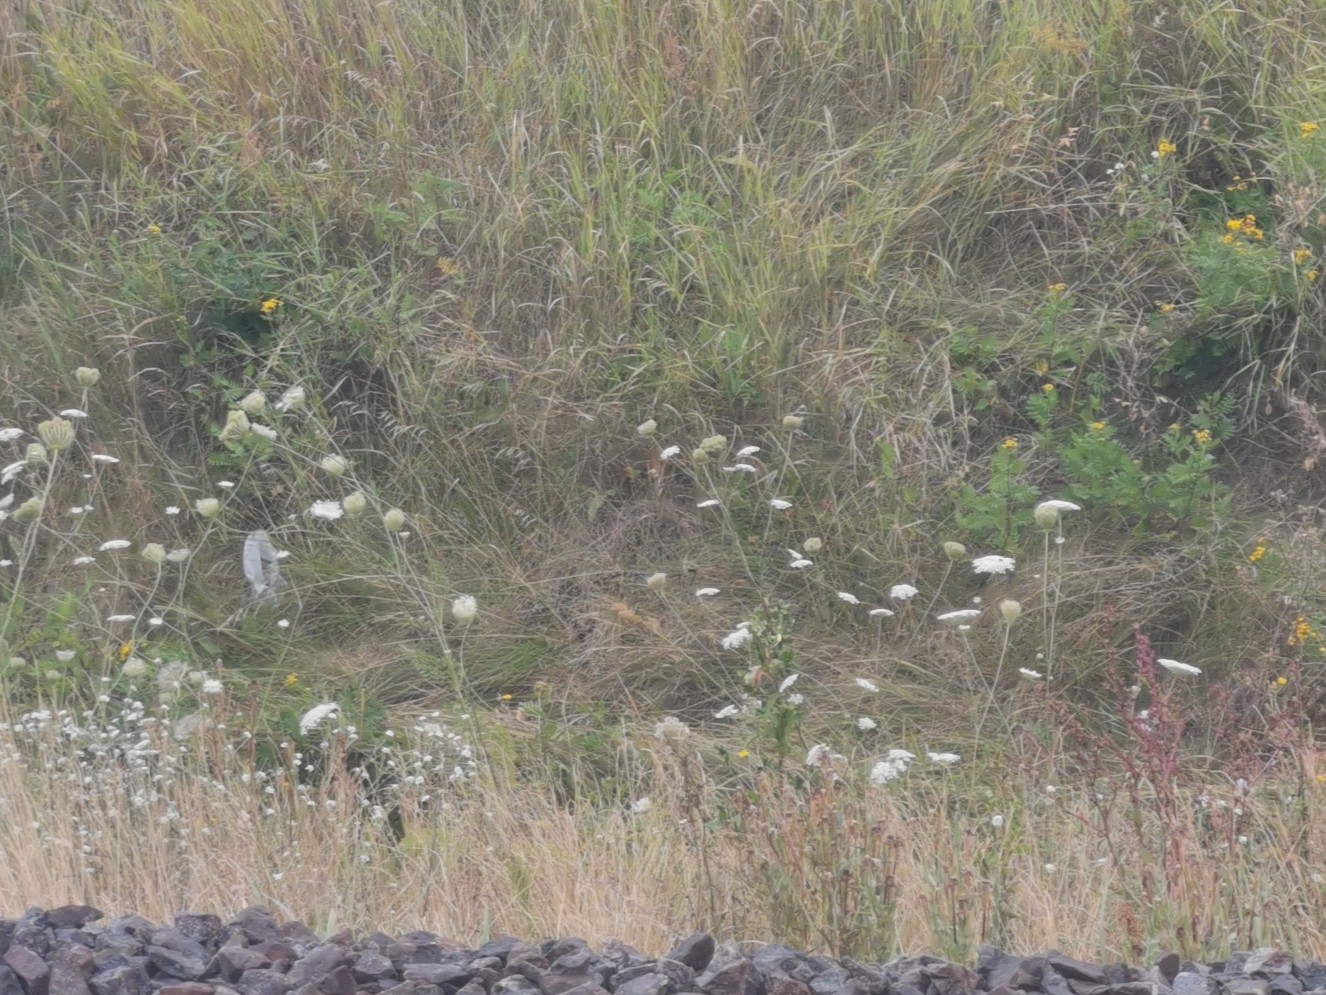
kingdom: Plantae
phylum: Tracheophyta
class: Magnoliopsida
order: Apiales
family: Apiaceae
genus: Daucus
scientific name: Daucus carota
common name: Wild carrot
